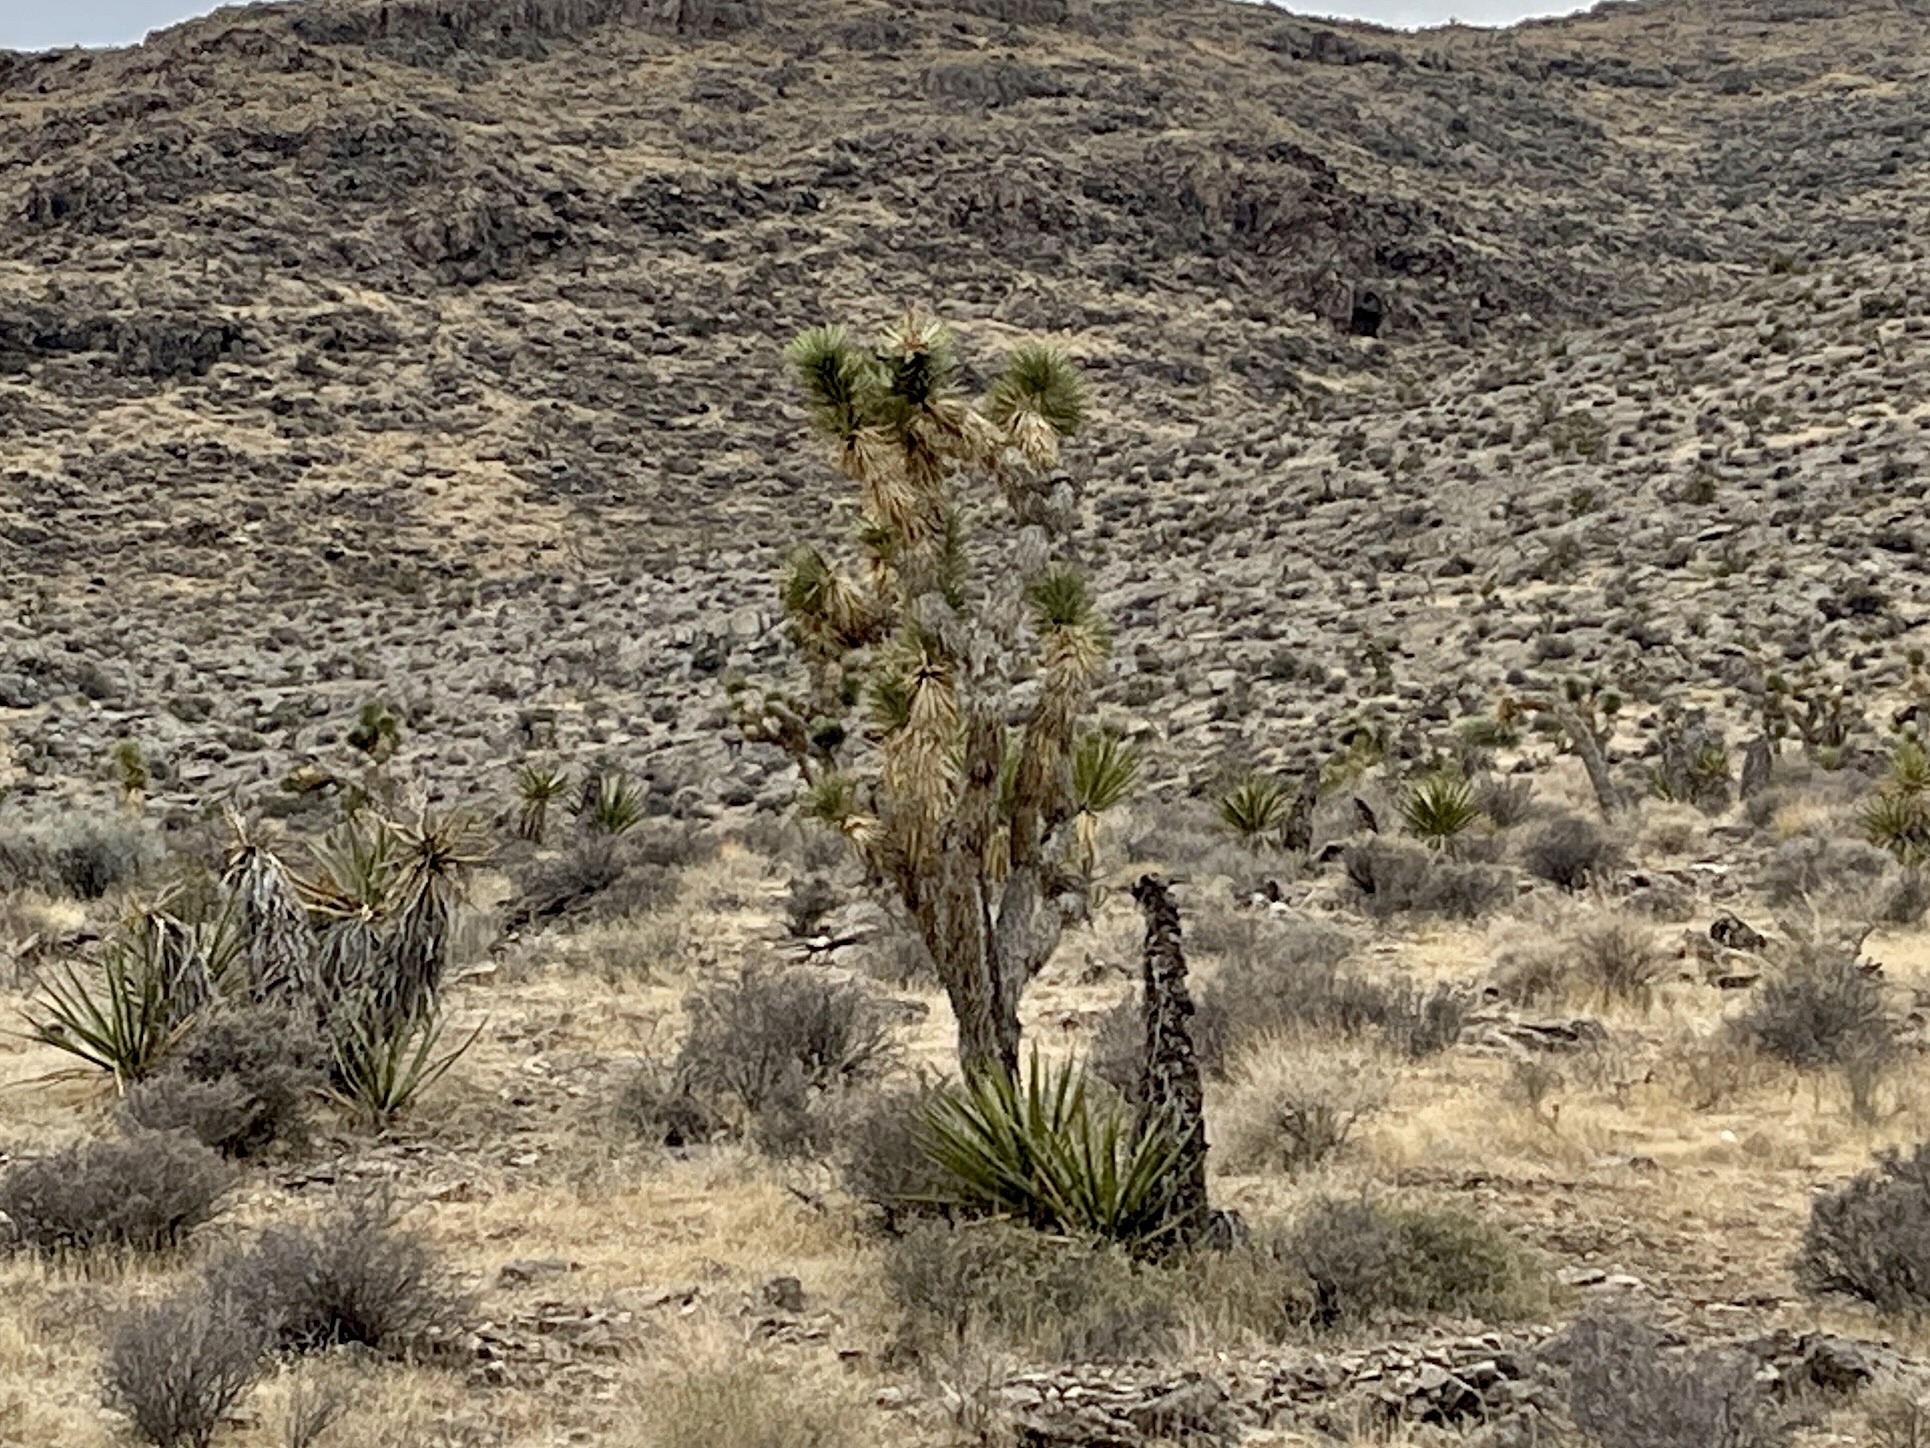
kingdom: Plantae
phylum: Tracheophyta
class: Liliopsida
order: Asparagales
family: Asparagaceae
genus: Yucca
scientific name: Yucca brevifolia
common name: Joshua tree
